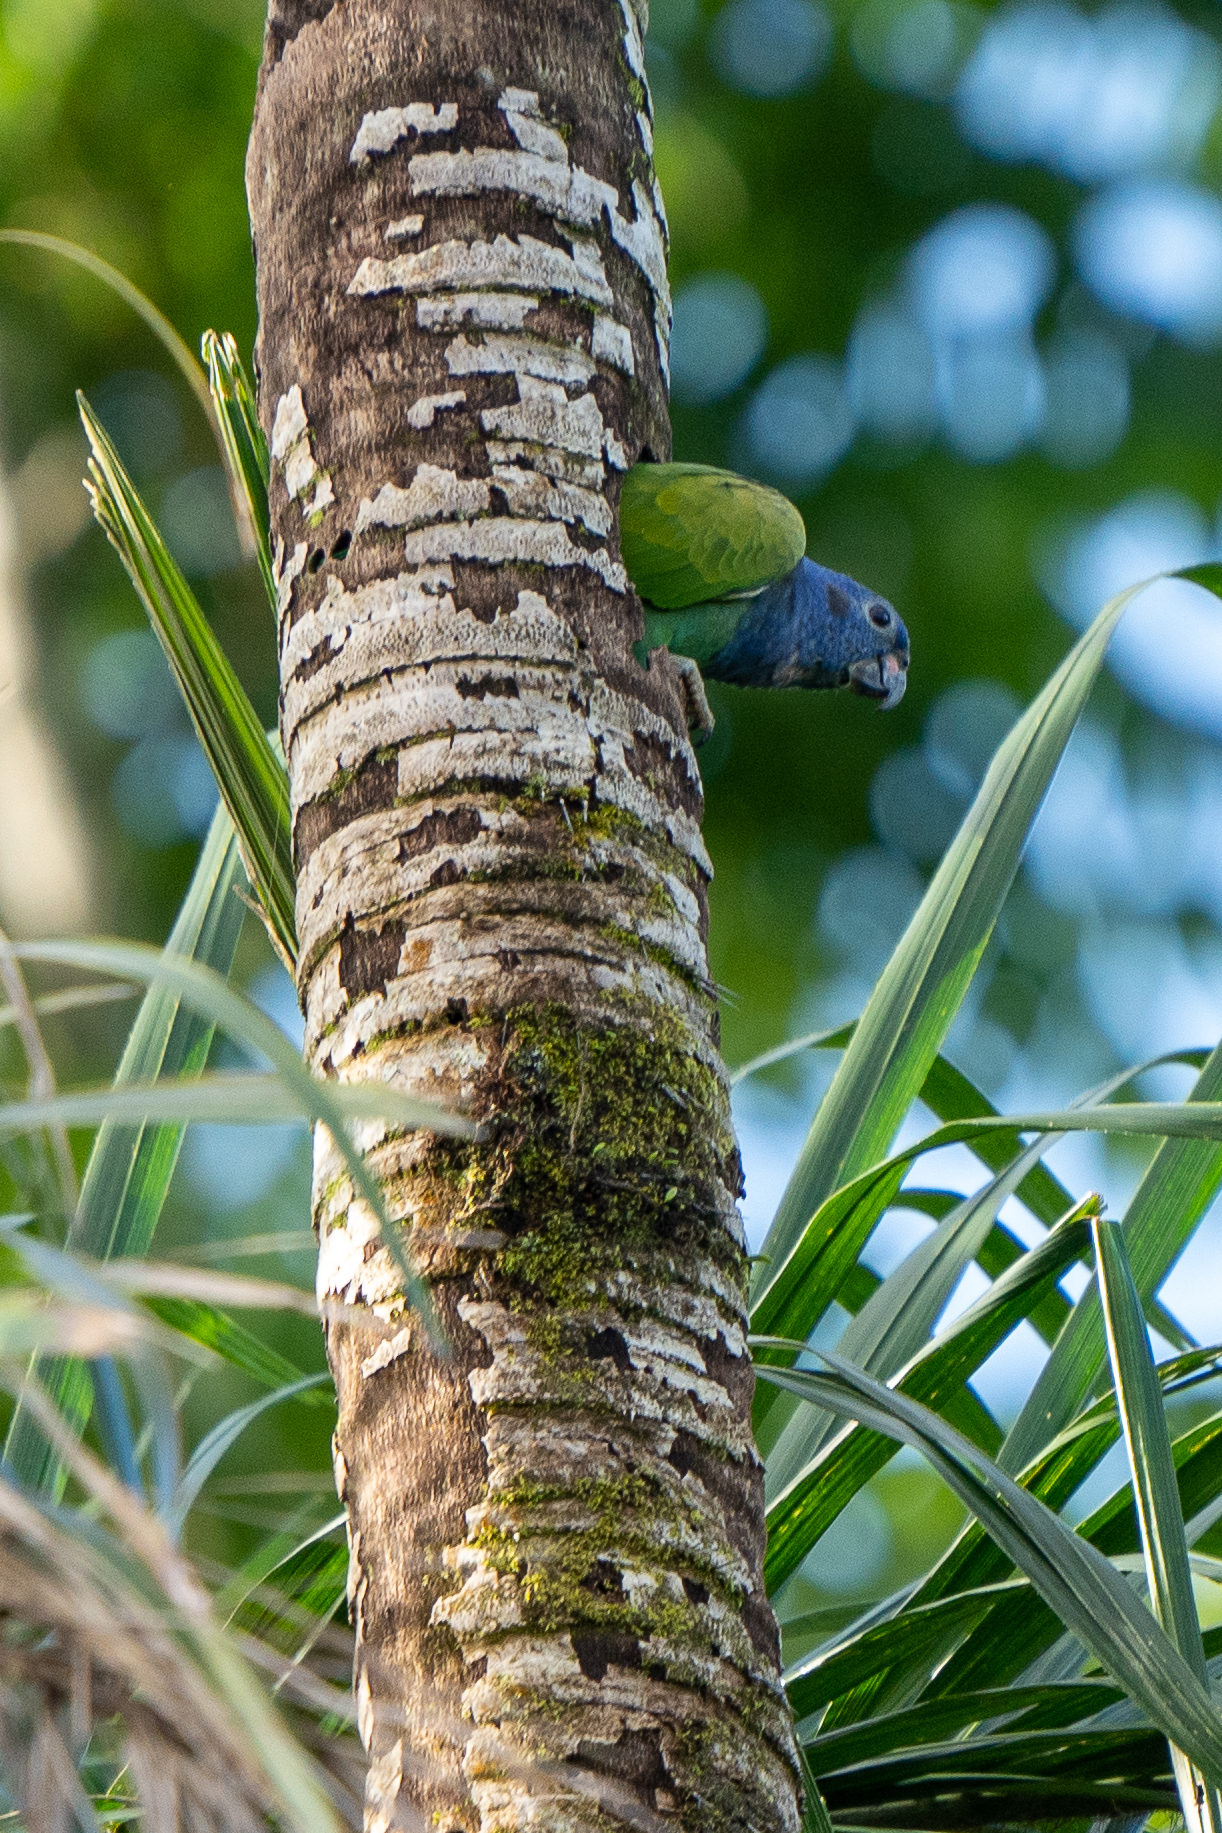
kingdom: Animalia
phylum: Chordata
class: Aves
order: Psittaciformes
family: Psittacidae
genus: Pionus
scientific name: Pionus menstruus
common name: Blue-headed parrot
